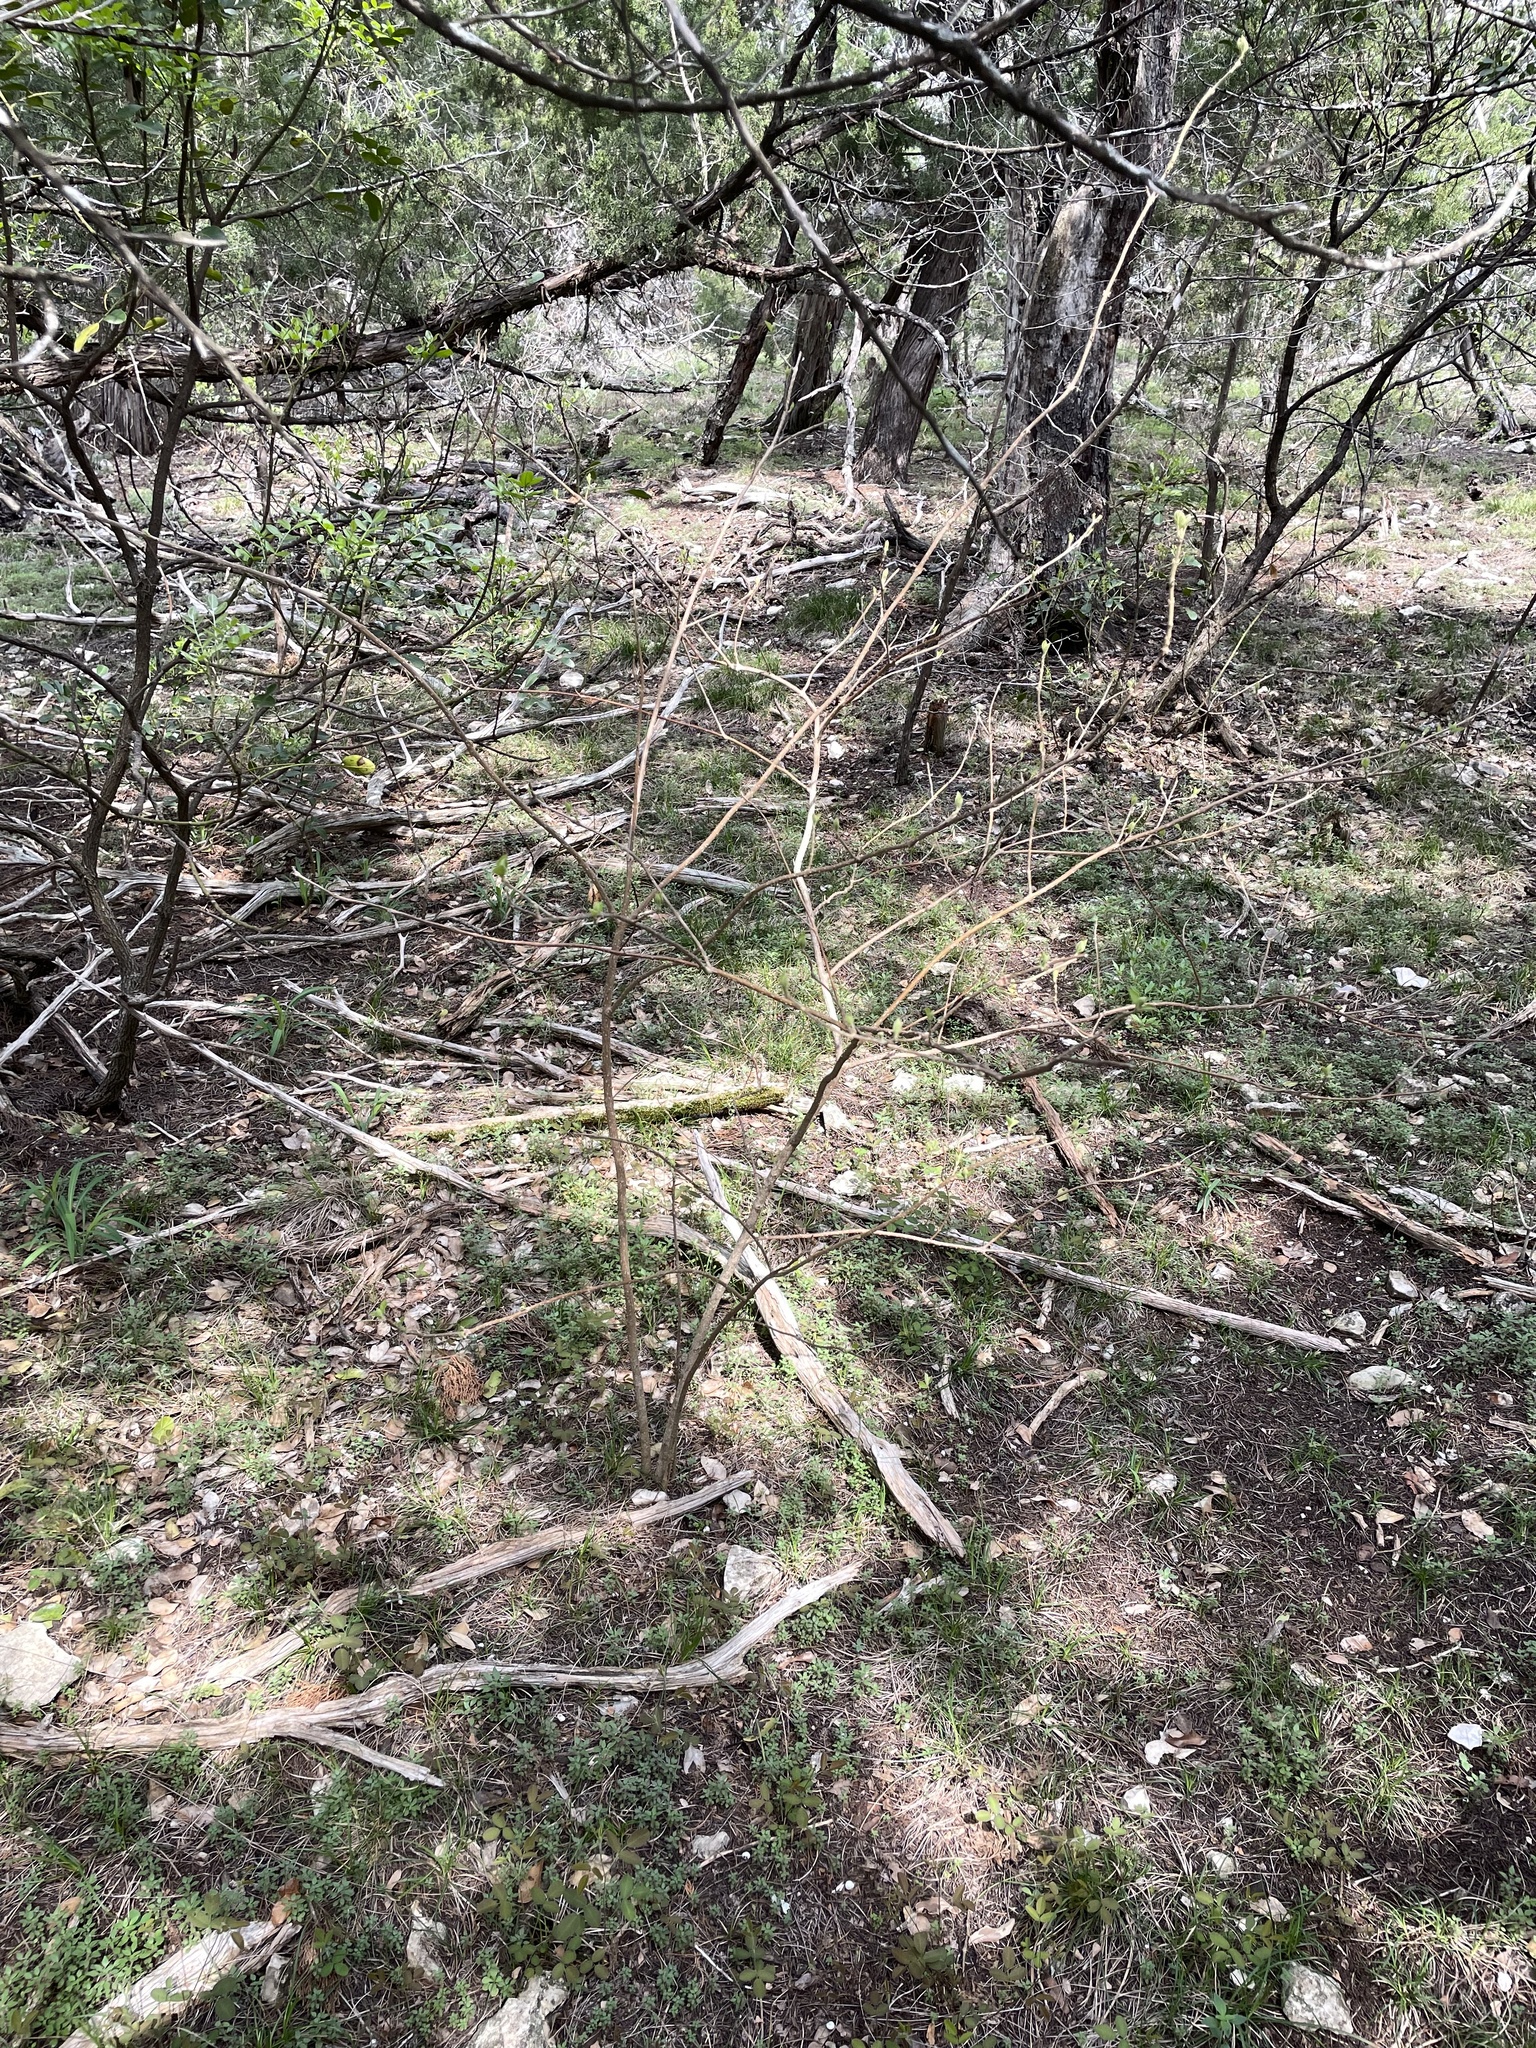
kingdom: Plantae
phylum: Tracheophyta
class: Magnoliopsida
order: Lamiales
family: Lamiaceae
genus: Callicarpa
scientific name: Callicarpa americana
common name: American beautyberry
